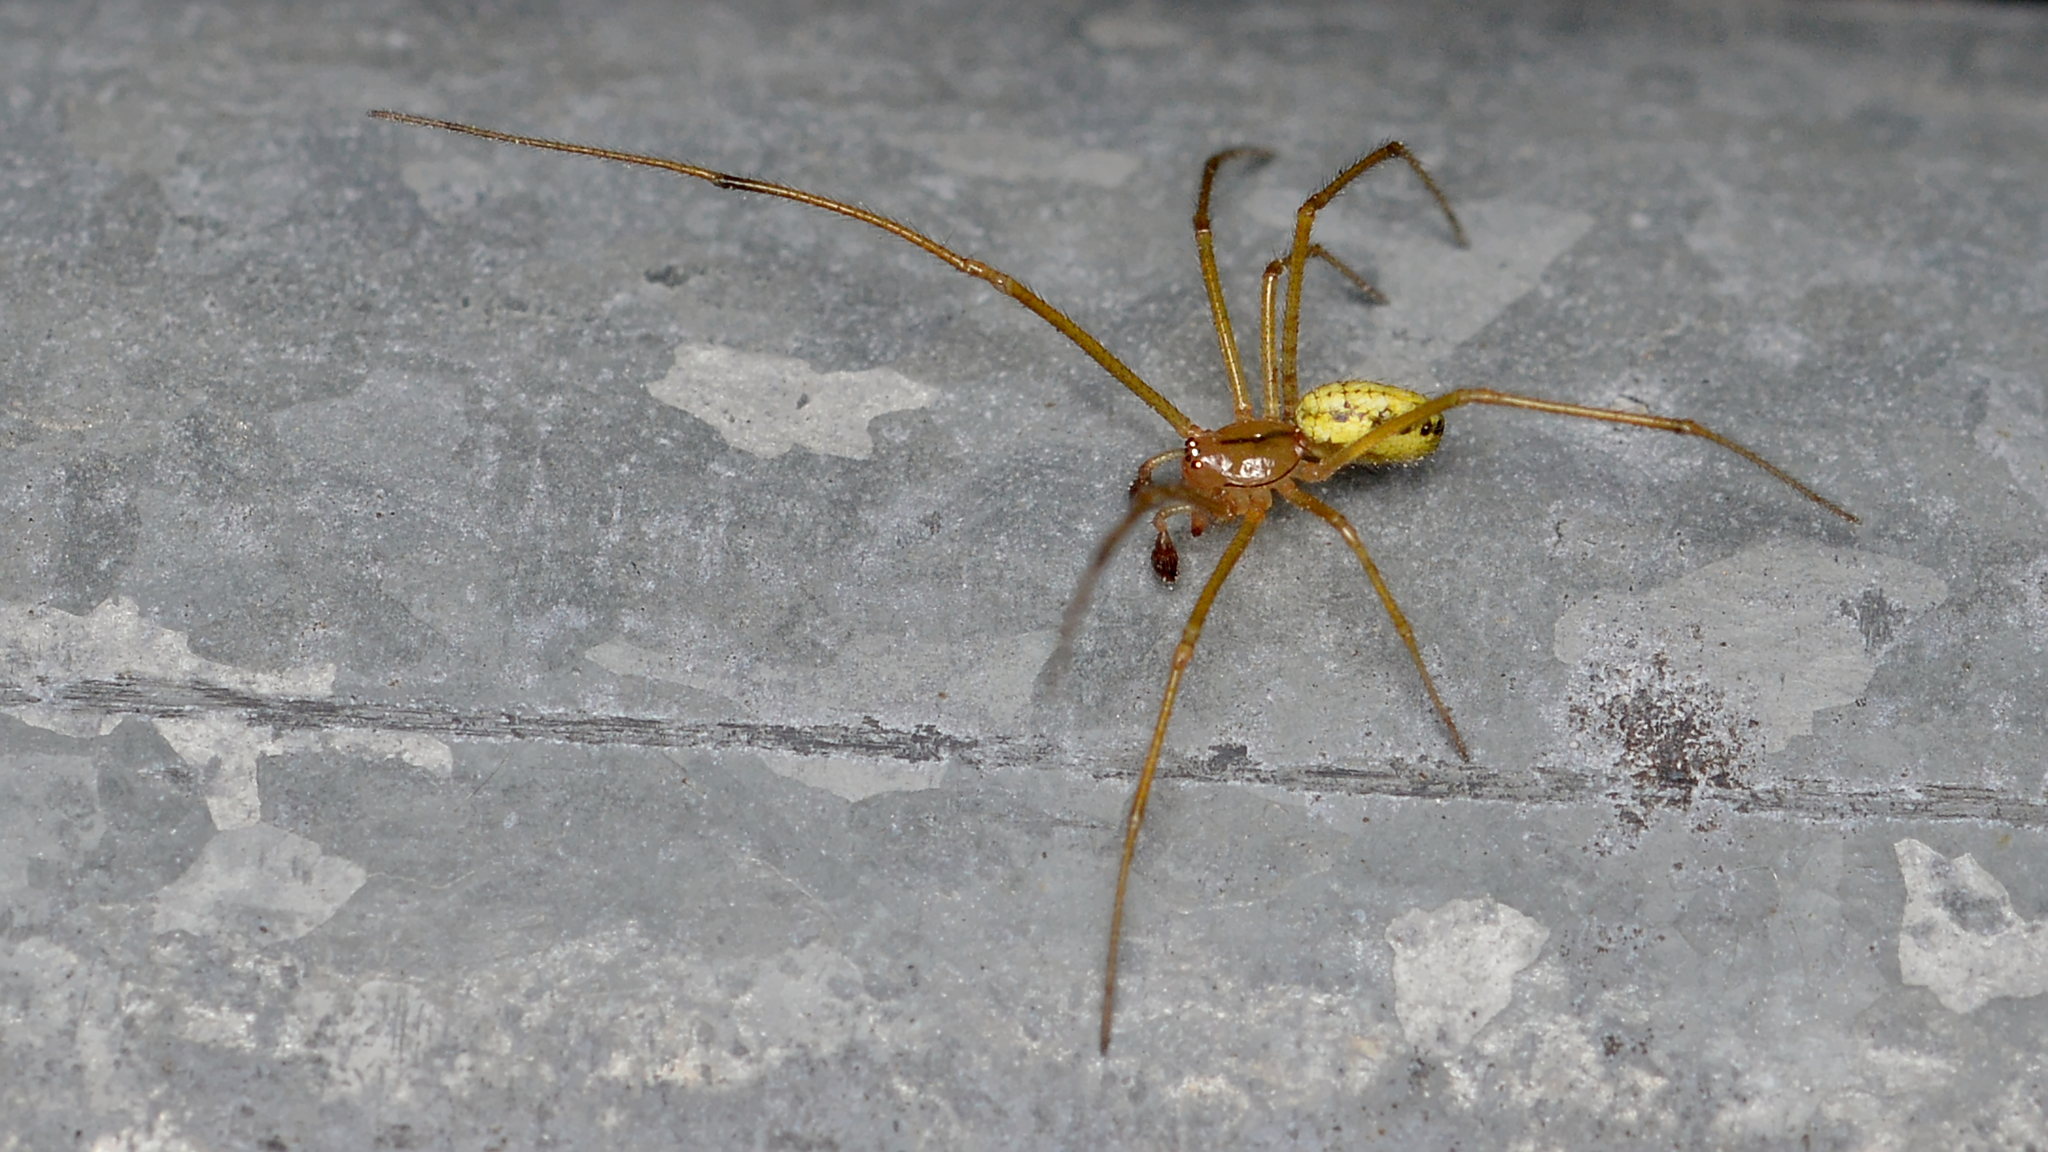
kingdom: Animalia
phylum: Arthropoda
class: Arachnida
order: Araneae
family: Theridiidae
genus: Enoplognatha
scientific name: Enoplognatha ovata
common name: Common candy-striped spider
